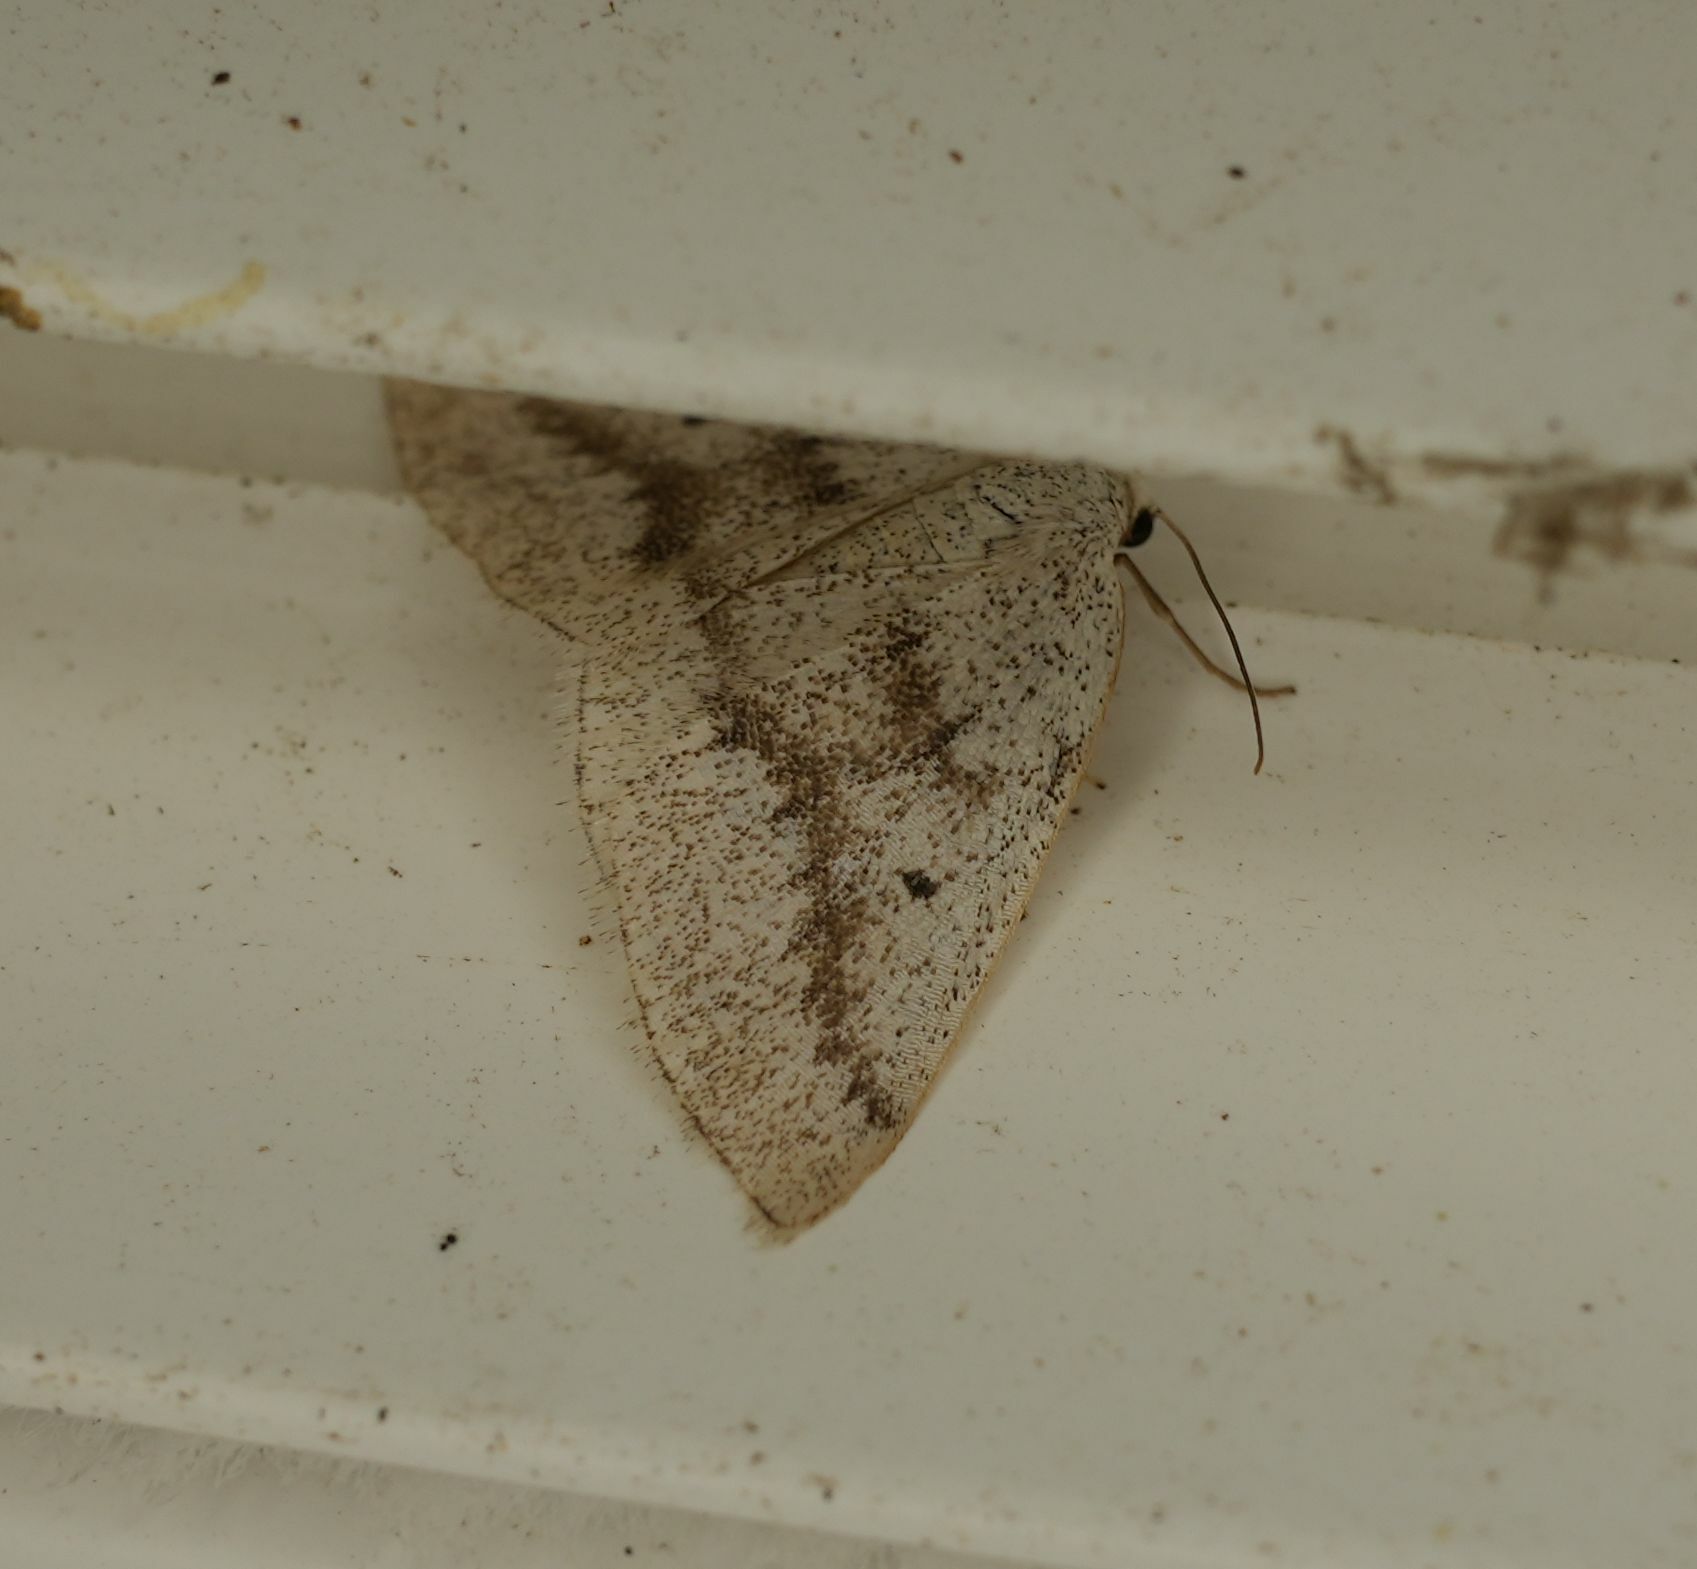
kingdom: Animalia
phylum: Arthropoda
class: Insecta
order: Lepidoptera
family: Geometridae
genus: Lomographa
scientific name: Lomographa glomeraria
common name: Gray spring moth
